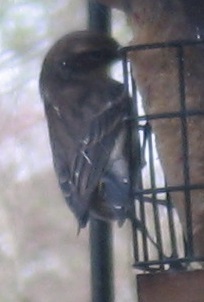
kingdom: Animalia
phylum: Chordata
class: Aves
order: Passeriformes
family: Parulidae
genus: Setophaga
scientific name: Setophaga coronata
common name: Myrtle warbler
